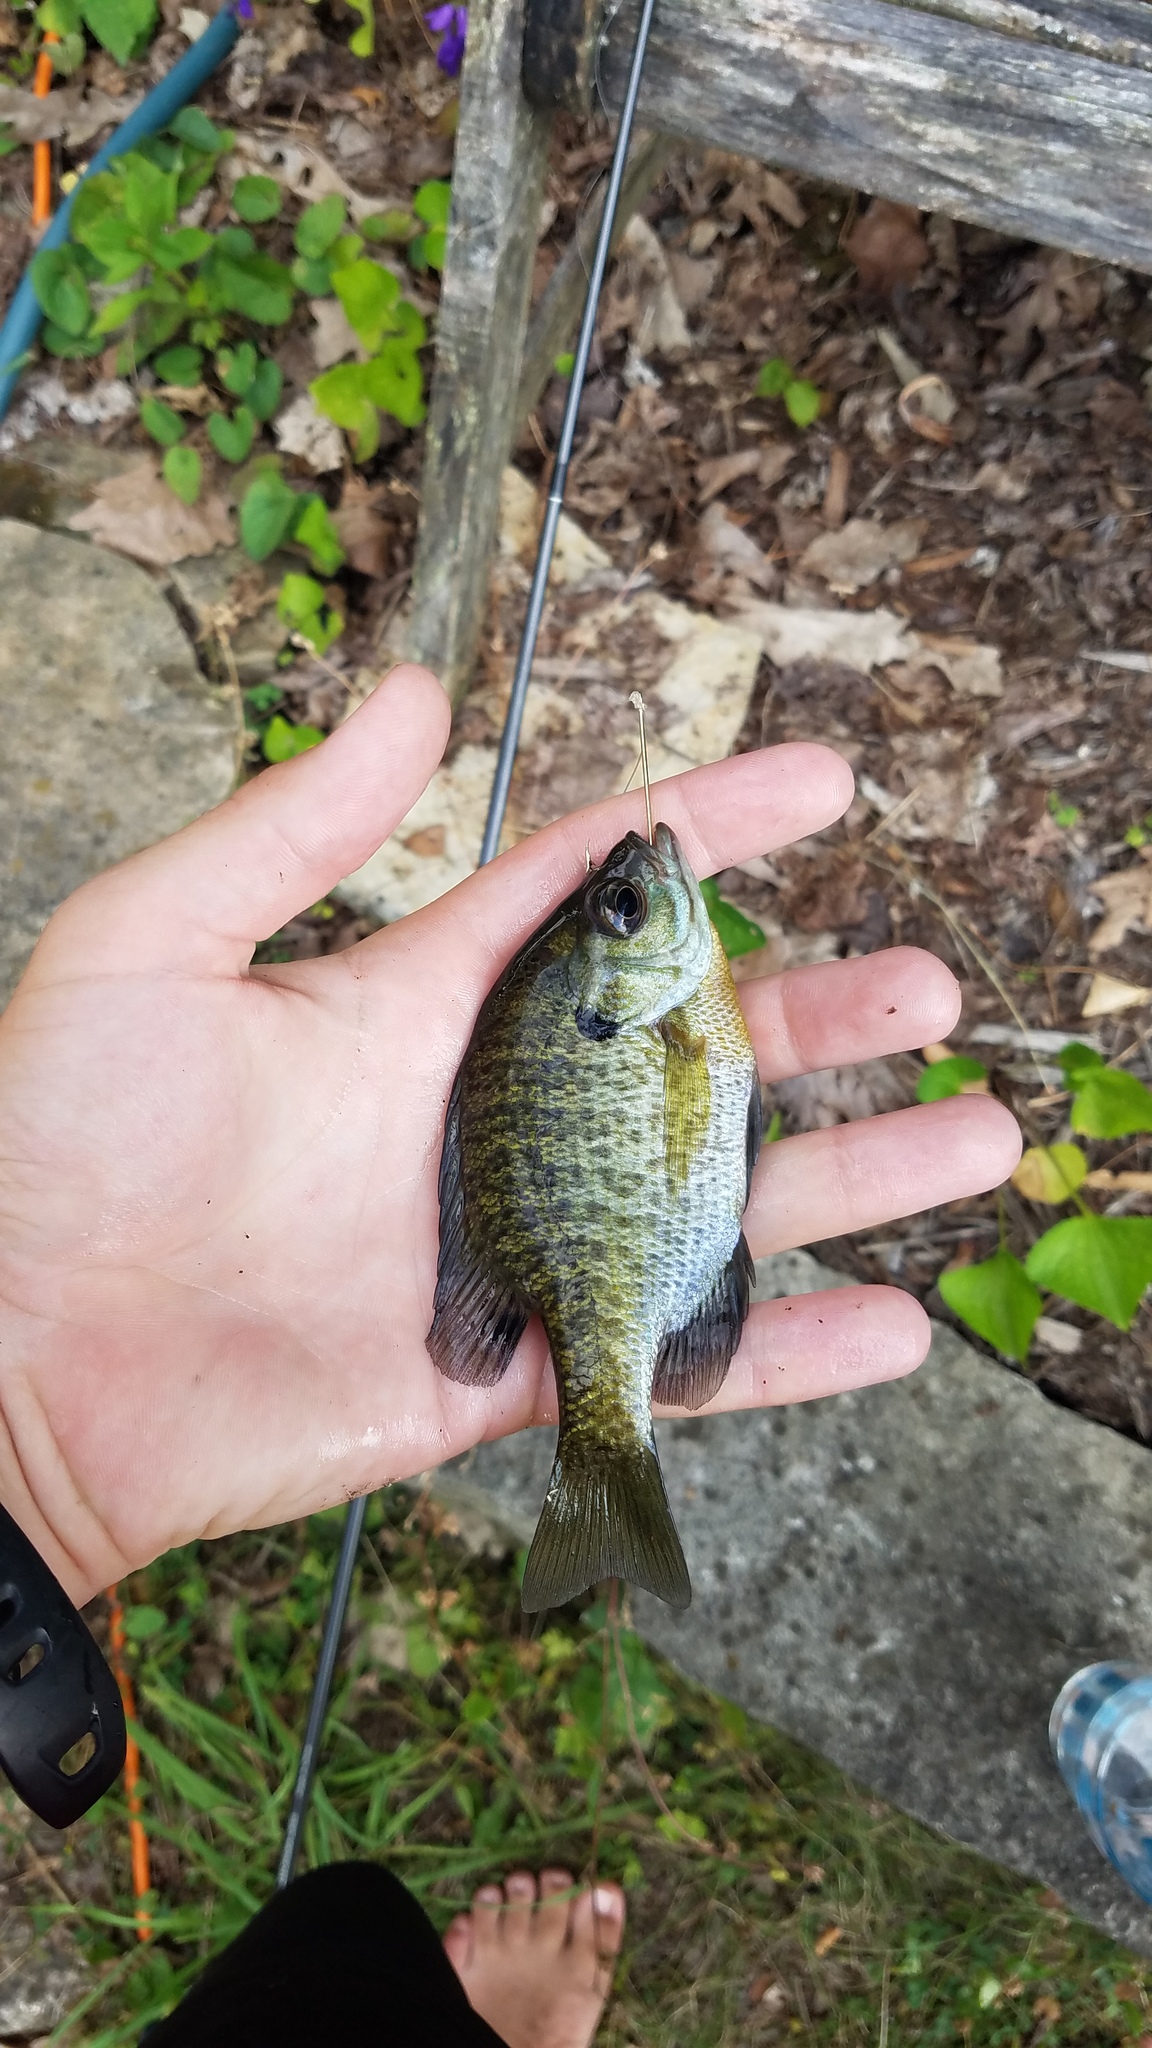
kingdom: Animalia
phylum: Chordata
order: Perciformes
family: Centrarchidae
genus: Lepomis
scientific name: Lepomis macrochirus
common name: Bluegill
